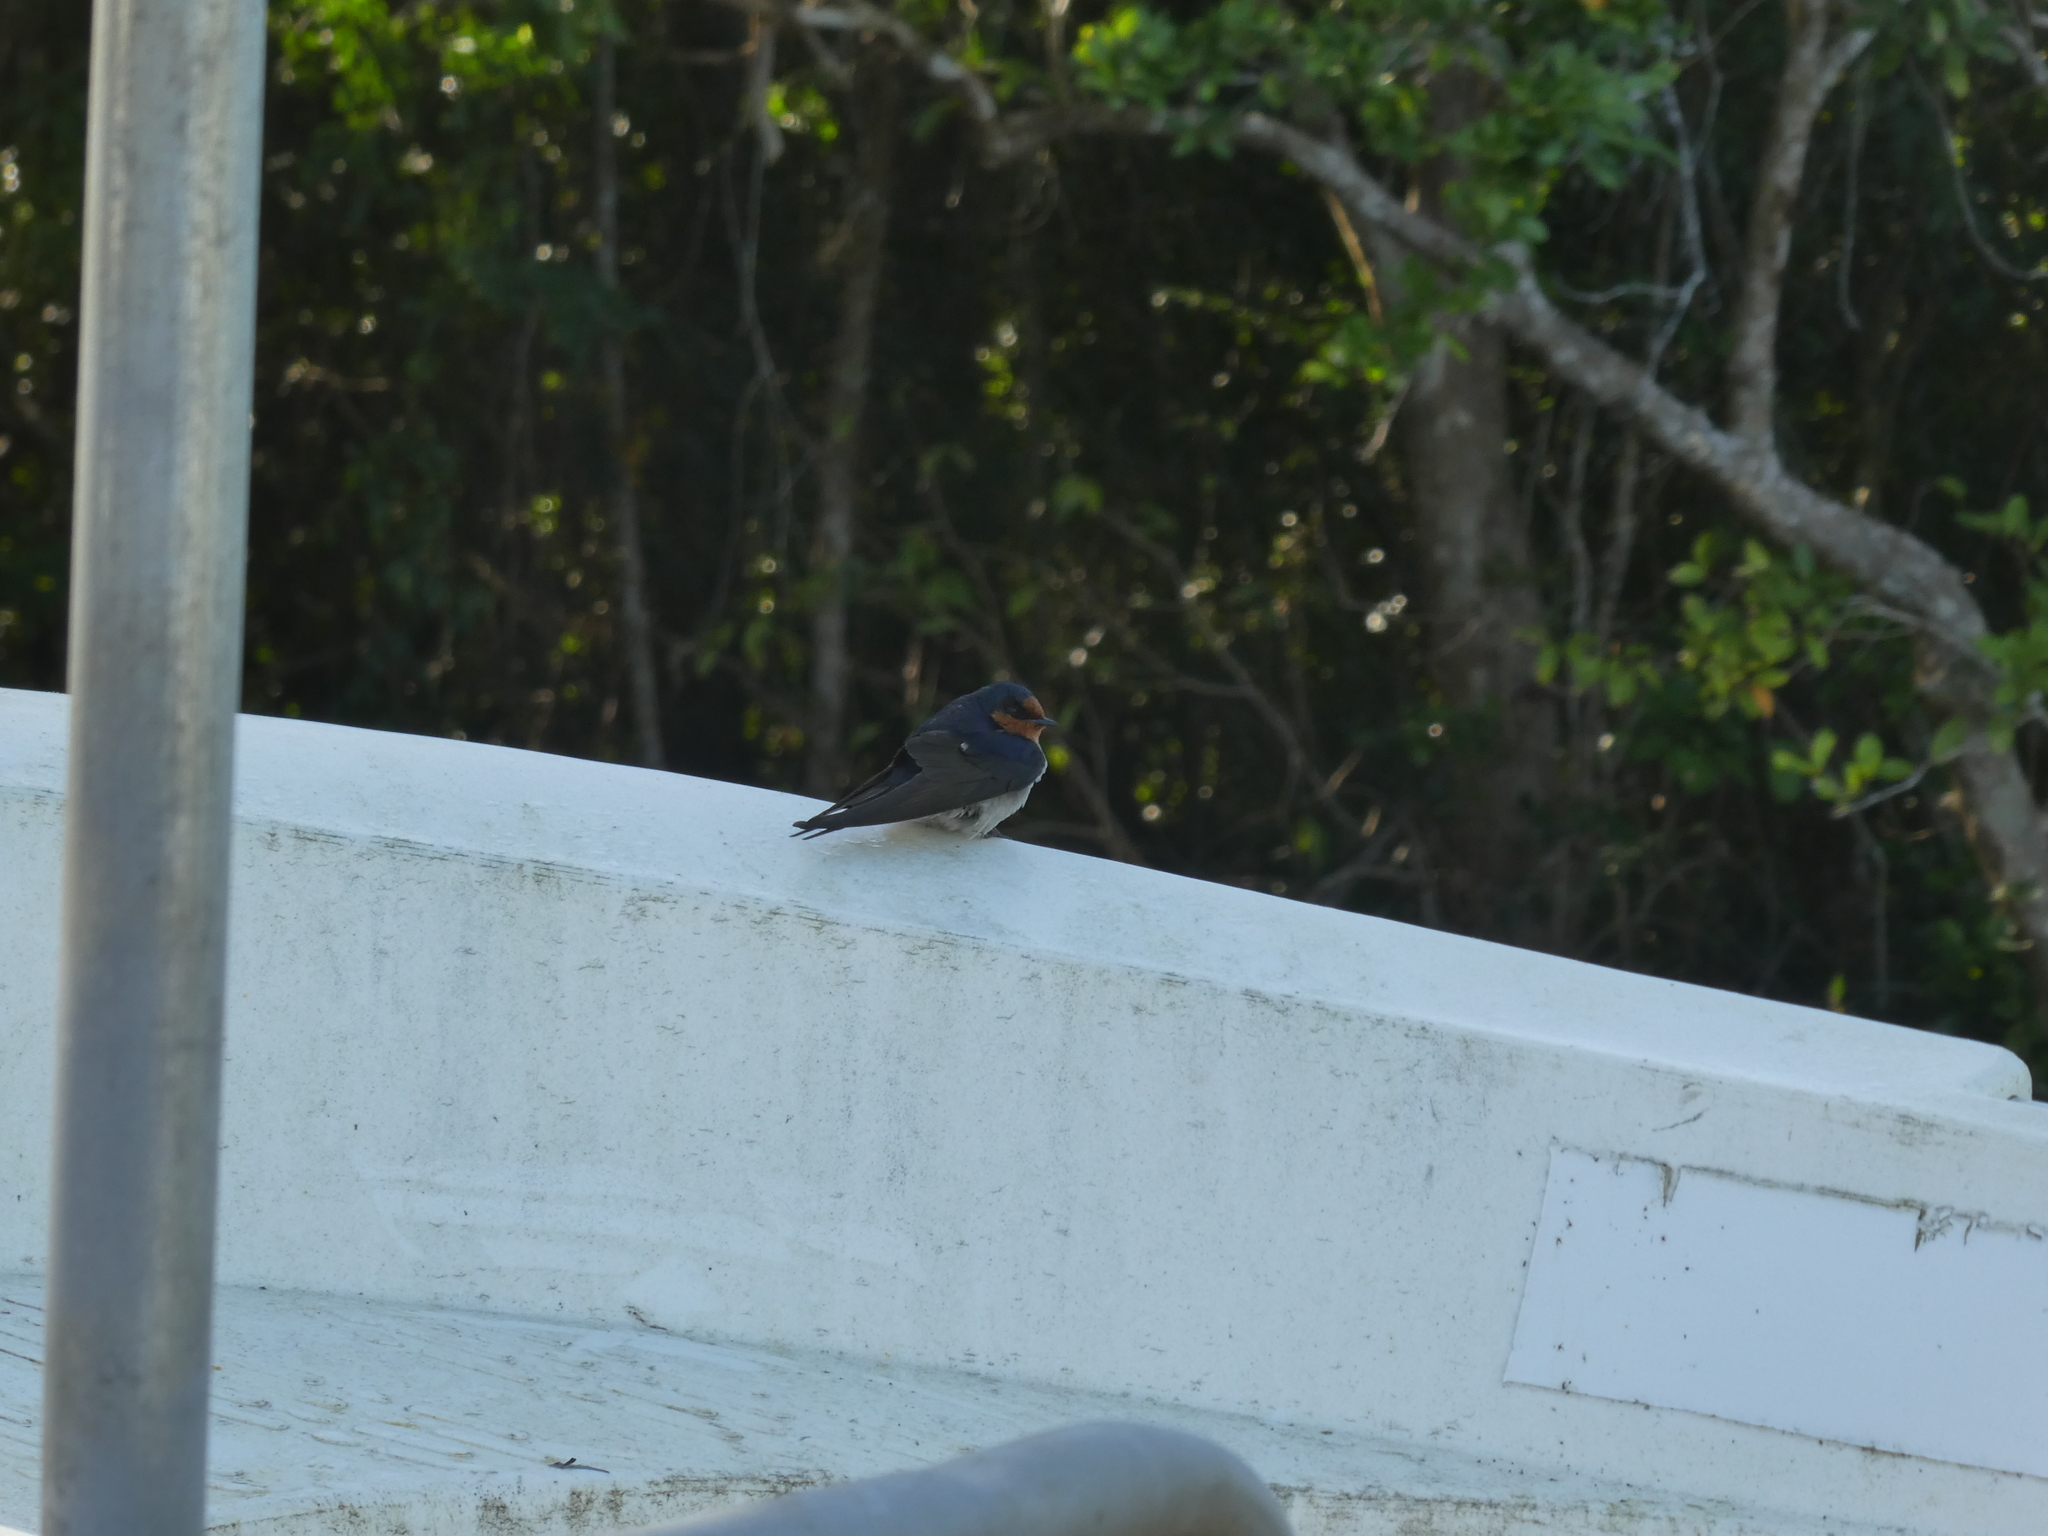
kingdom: Animalia
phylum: Chordata
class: Aves
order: Passeriformes
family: Hirundinidae
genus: Hirundo
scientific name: Hirundo neoxena
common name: Welcome swallow
